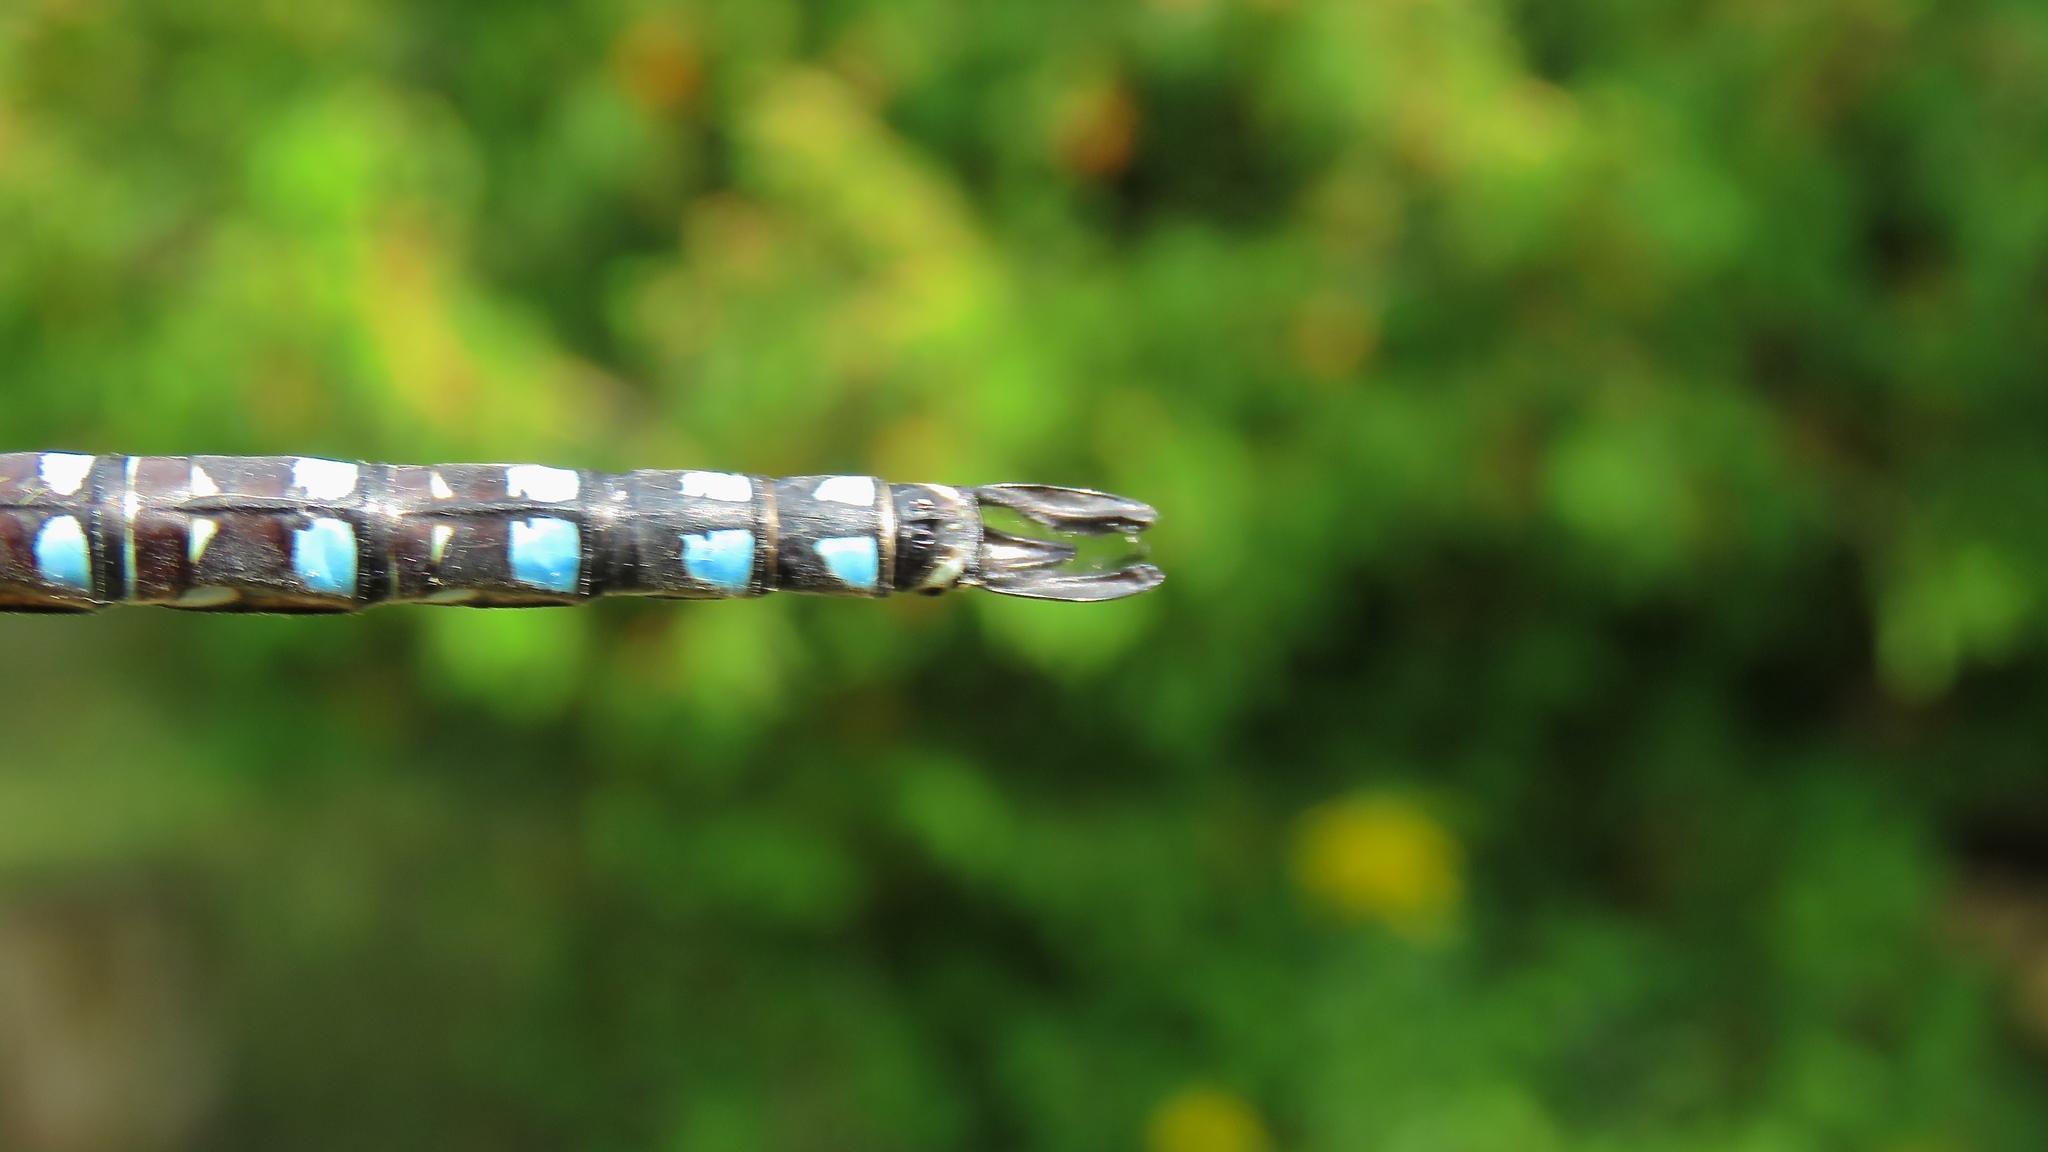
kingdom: Animalia
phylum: Arthropoda
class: Insecta
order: Odonata
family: Aeshnidae
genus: Aeshna
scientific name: Aeshna interrupta
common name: Variable darner
